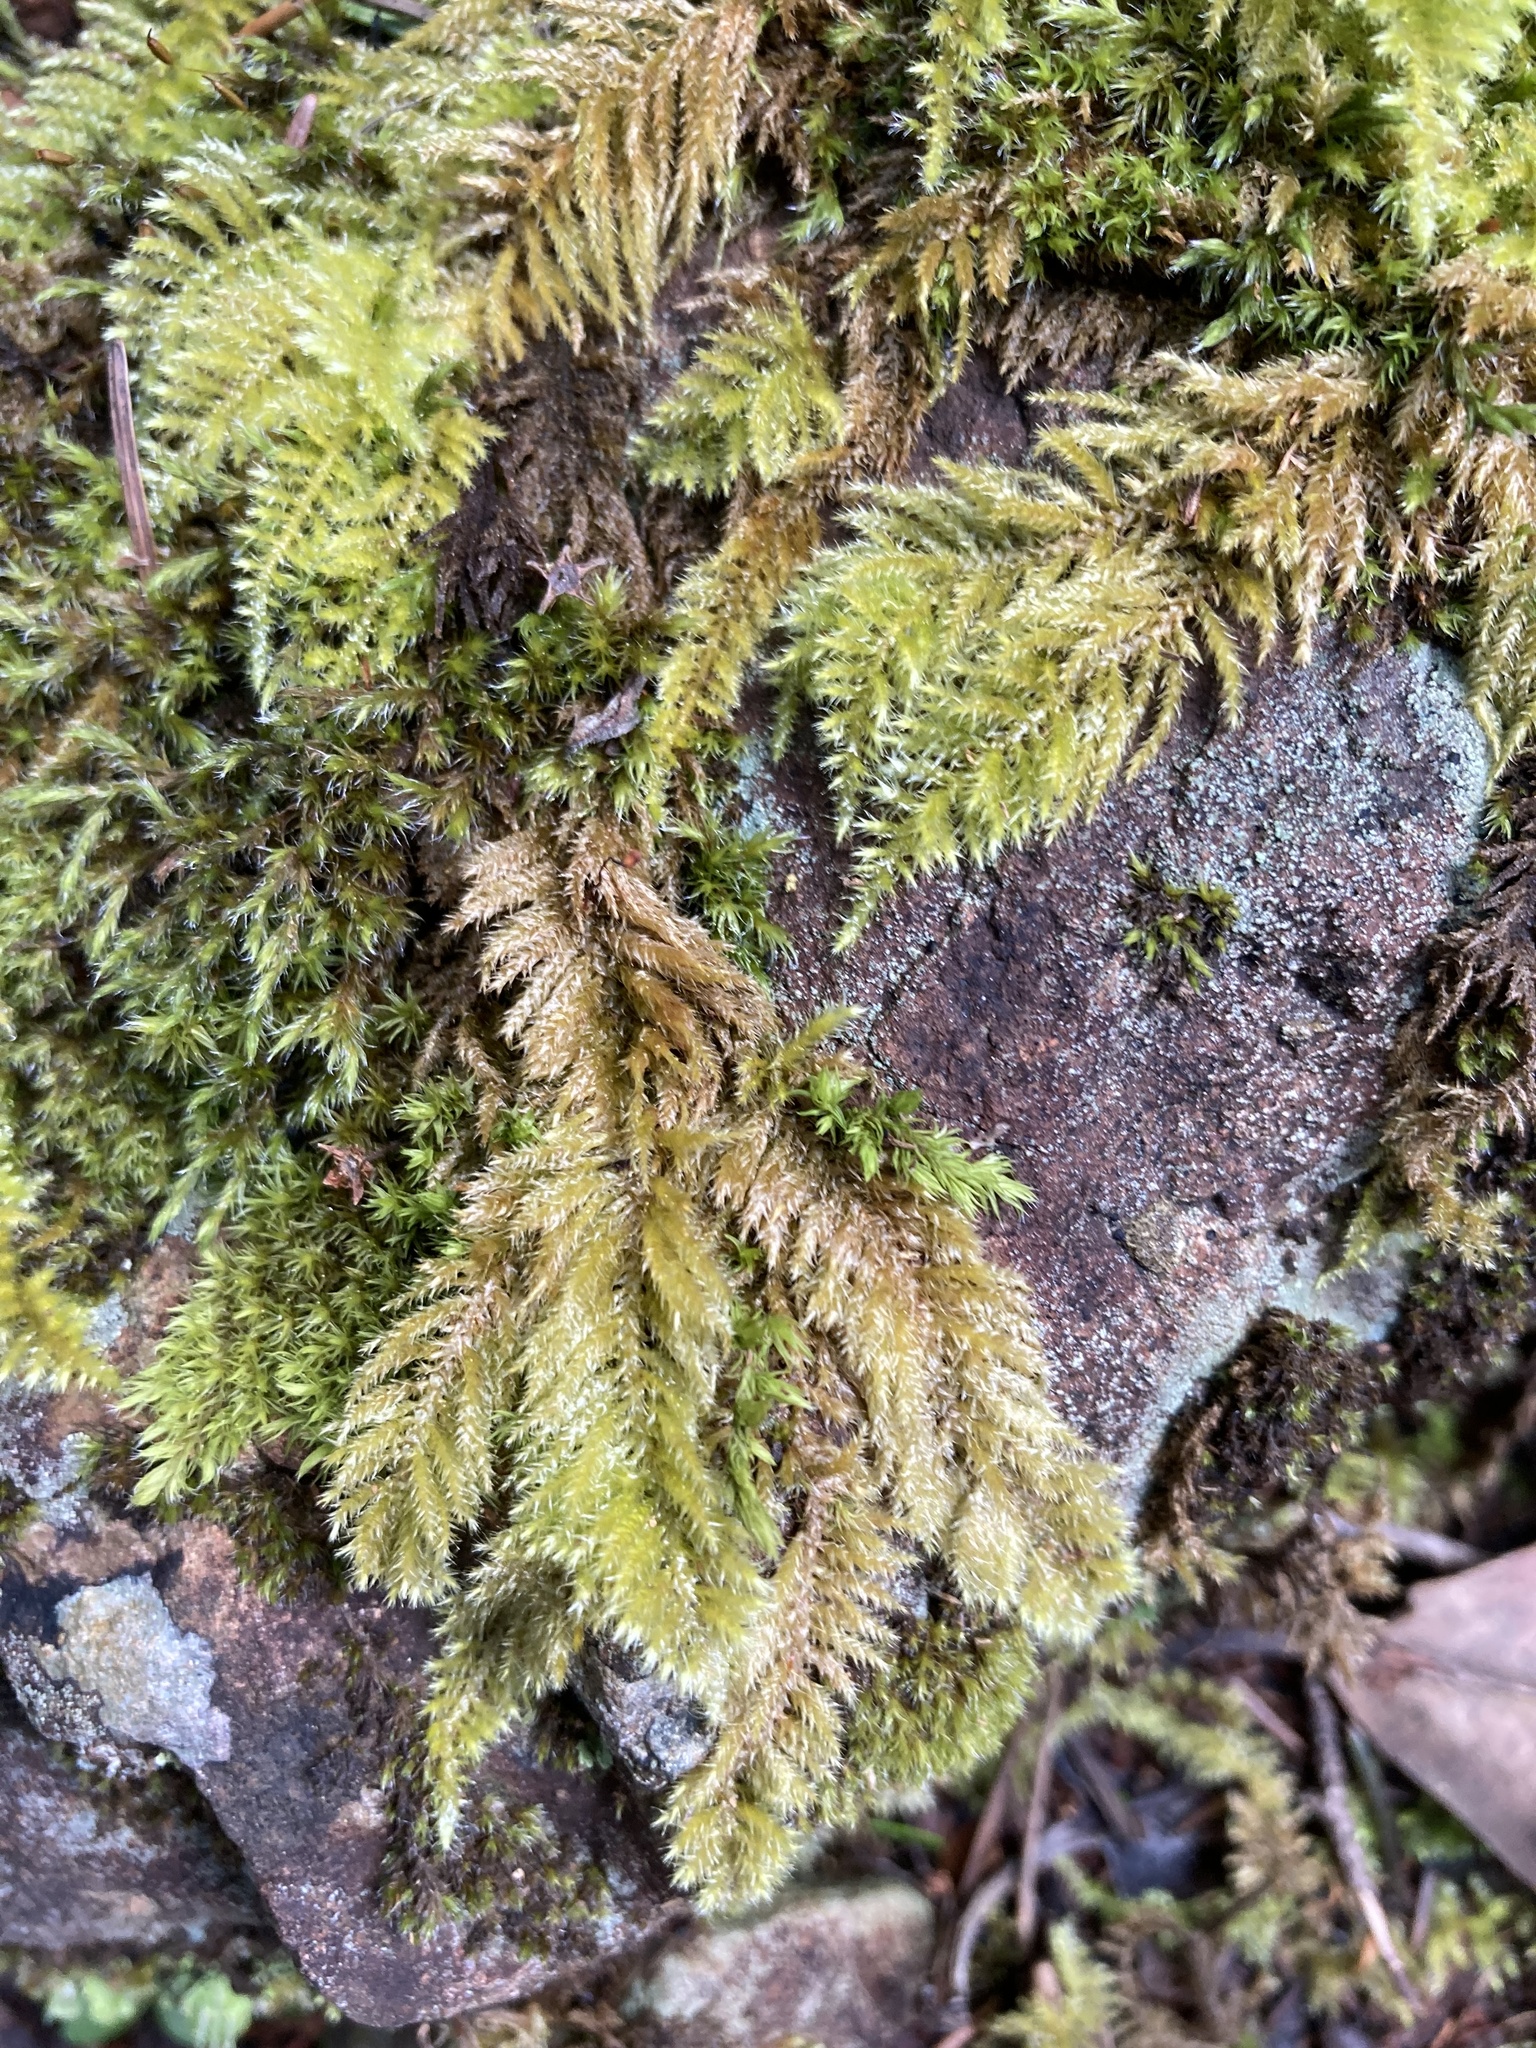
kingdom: Plantae
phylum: Bryophyta
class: Bryopsida
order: Hypnales
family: Brachytheciaceae
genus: Kindbergia
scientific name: Kindbergia oregana
